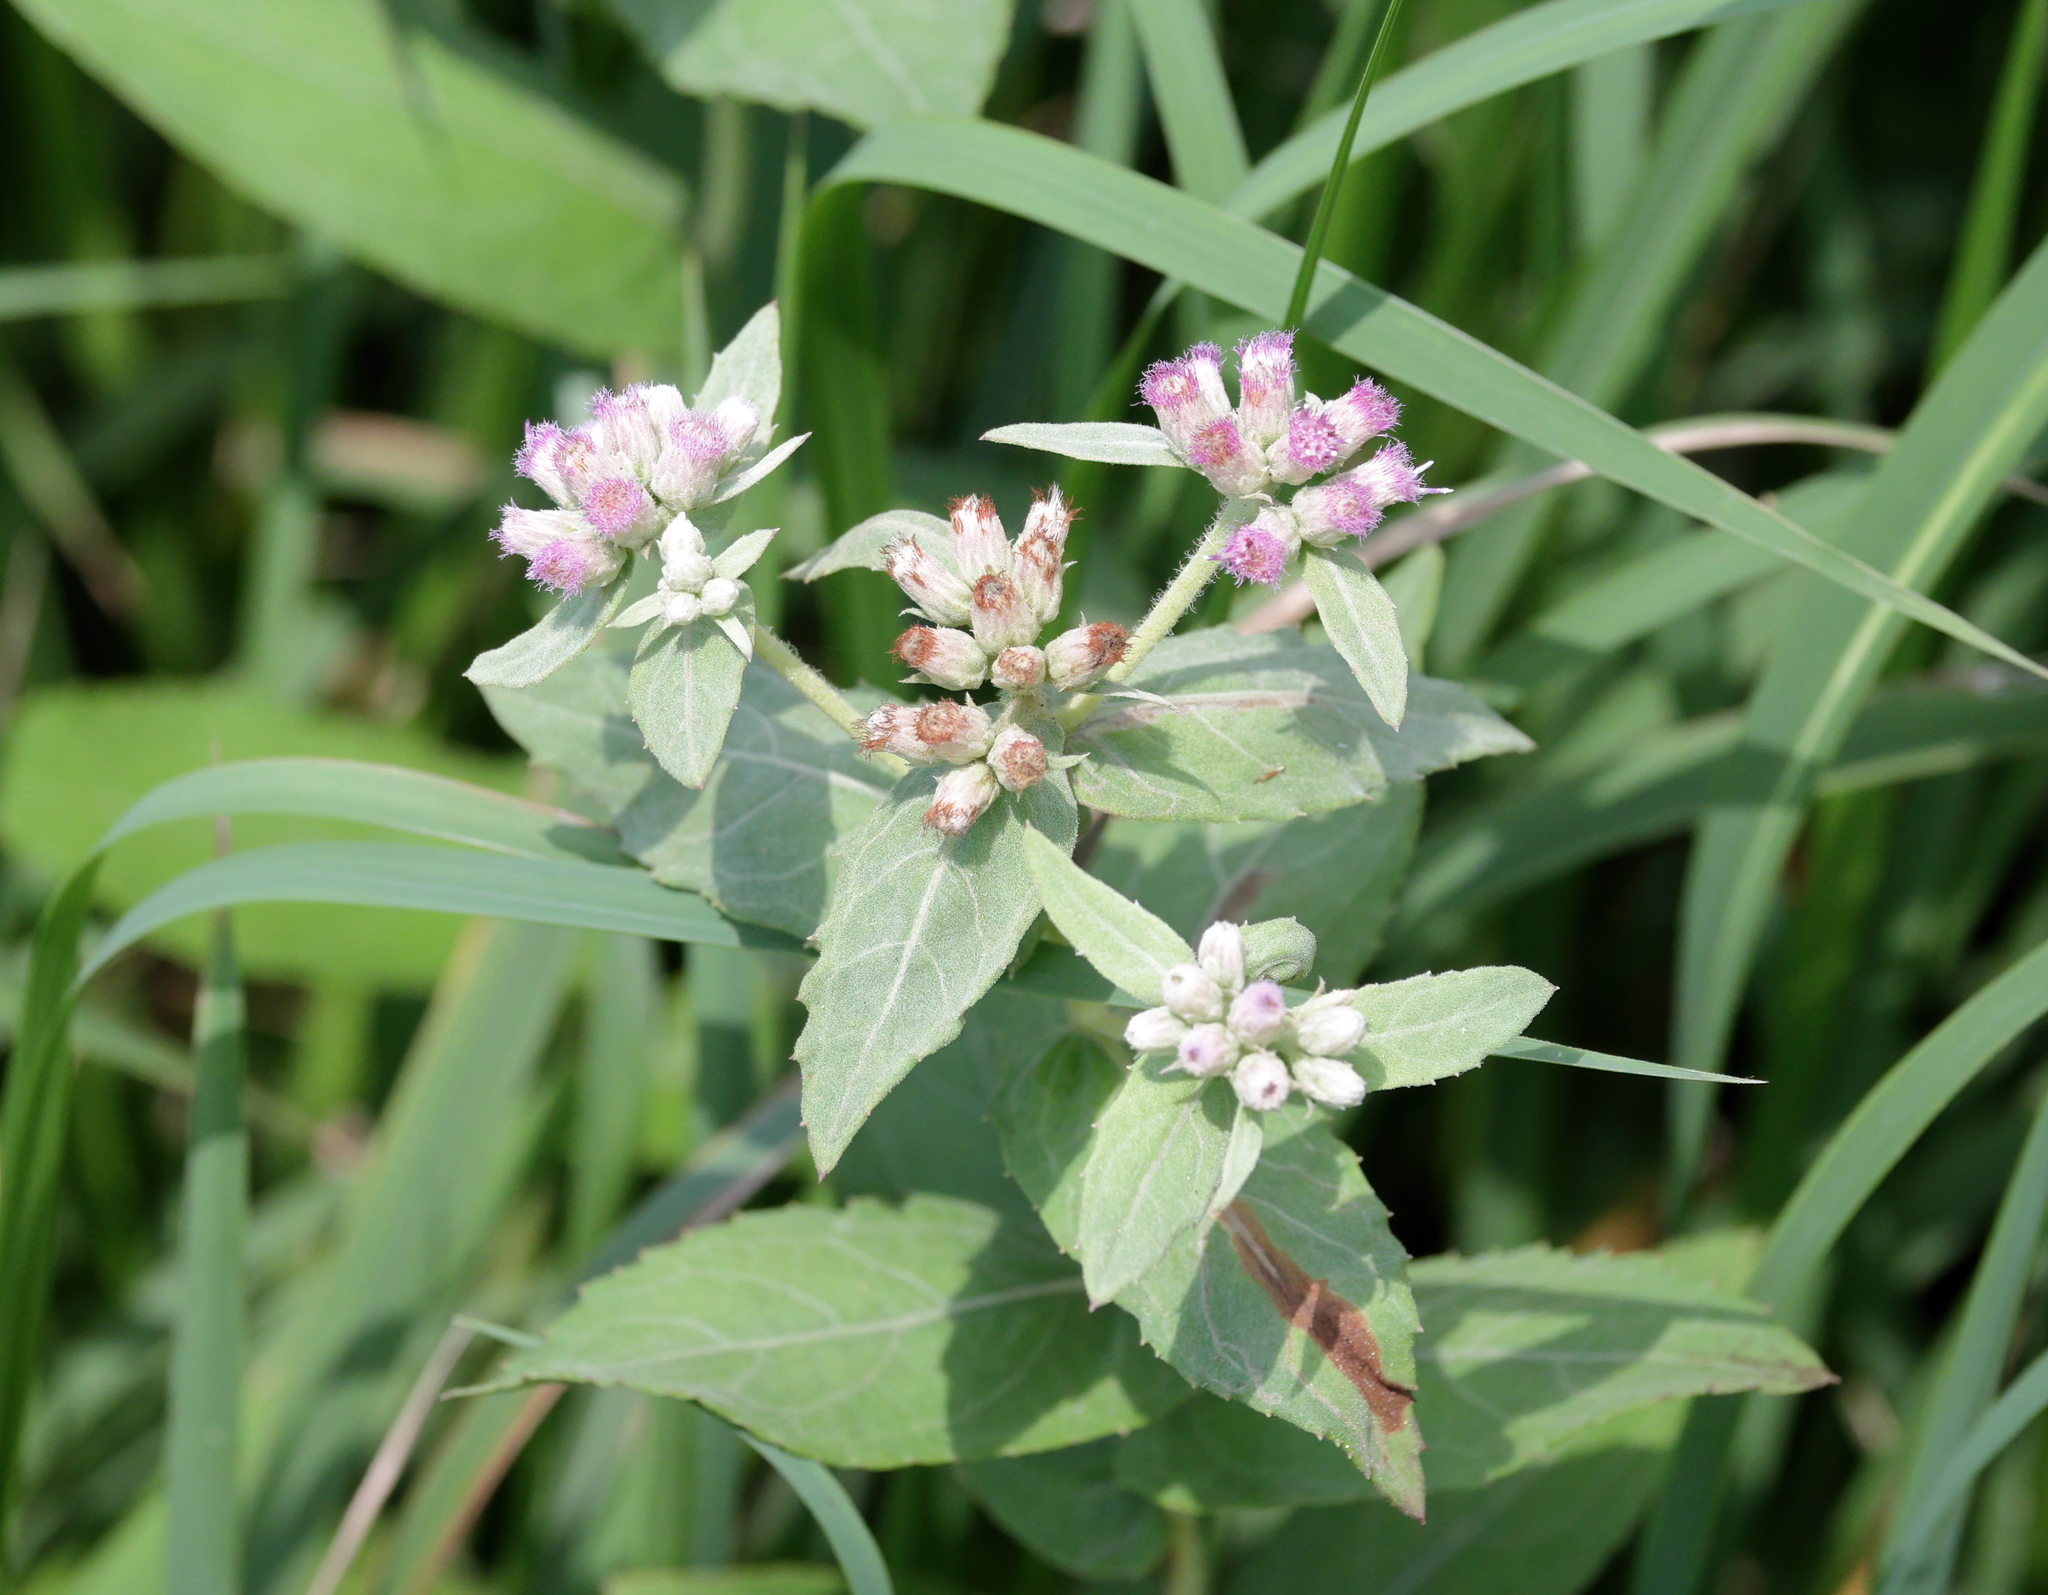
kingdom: Plantae
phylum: Tracheophyta
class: Magnoliopsida
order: Asterales
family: Asteraceae
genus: Pluchea
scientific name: Pluchea baccharis
